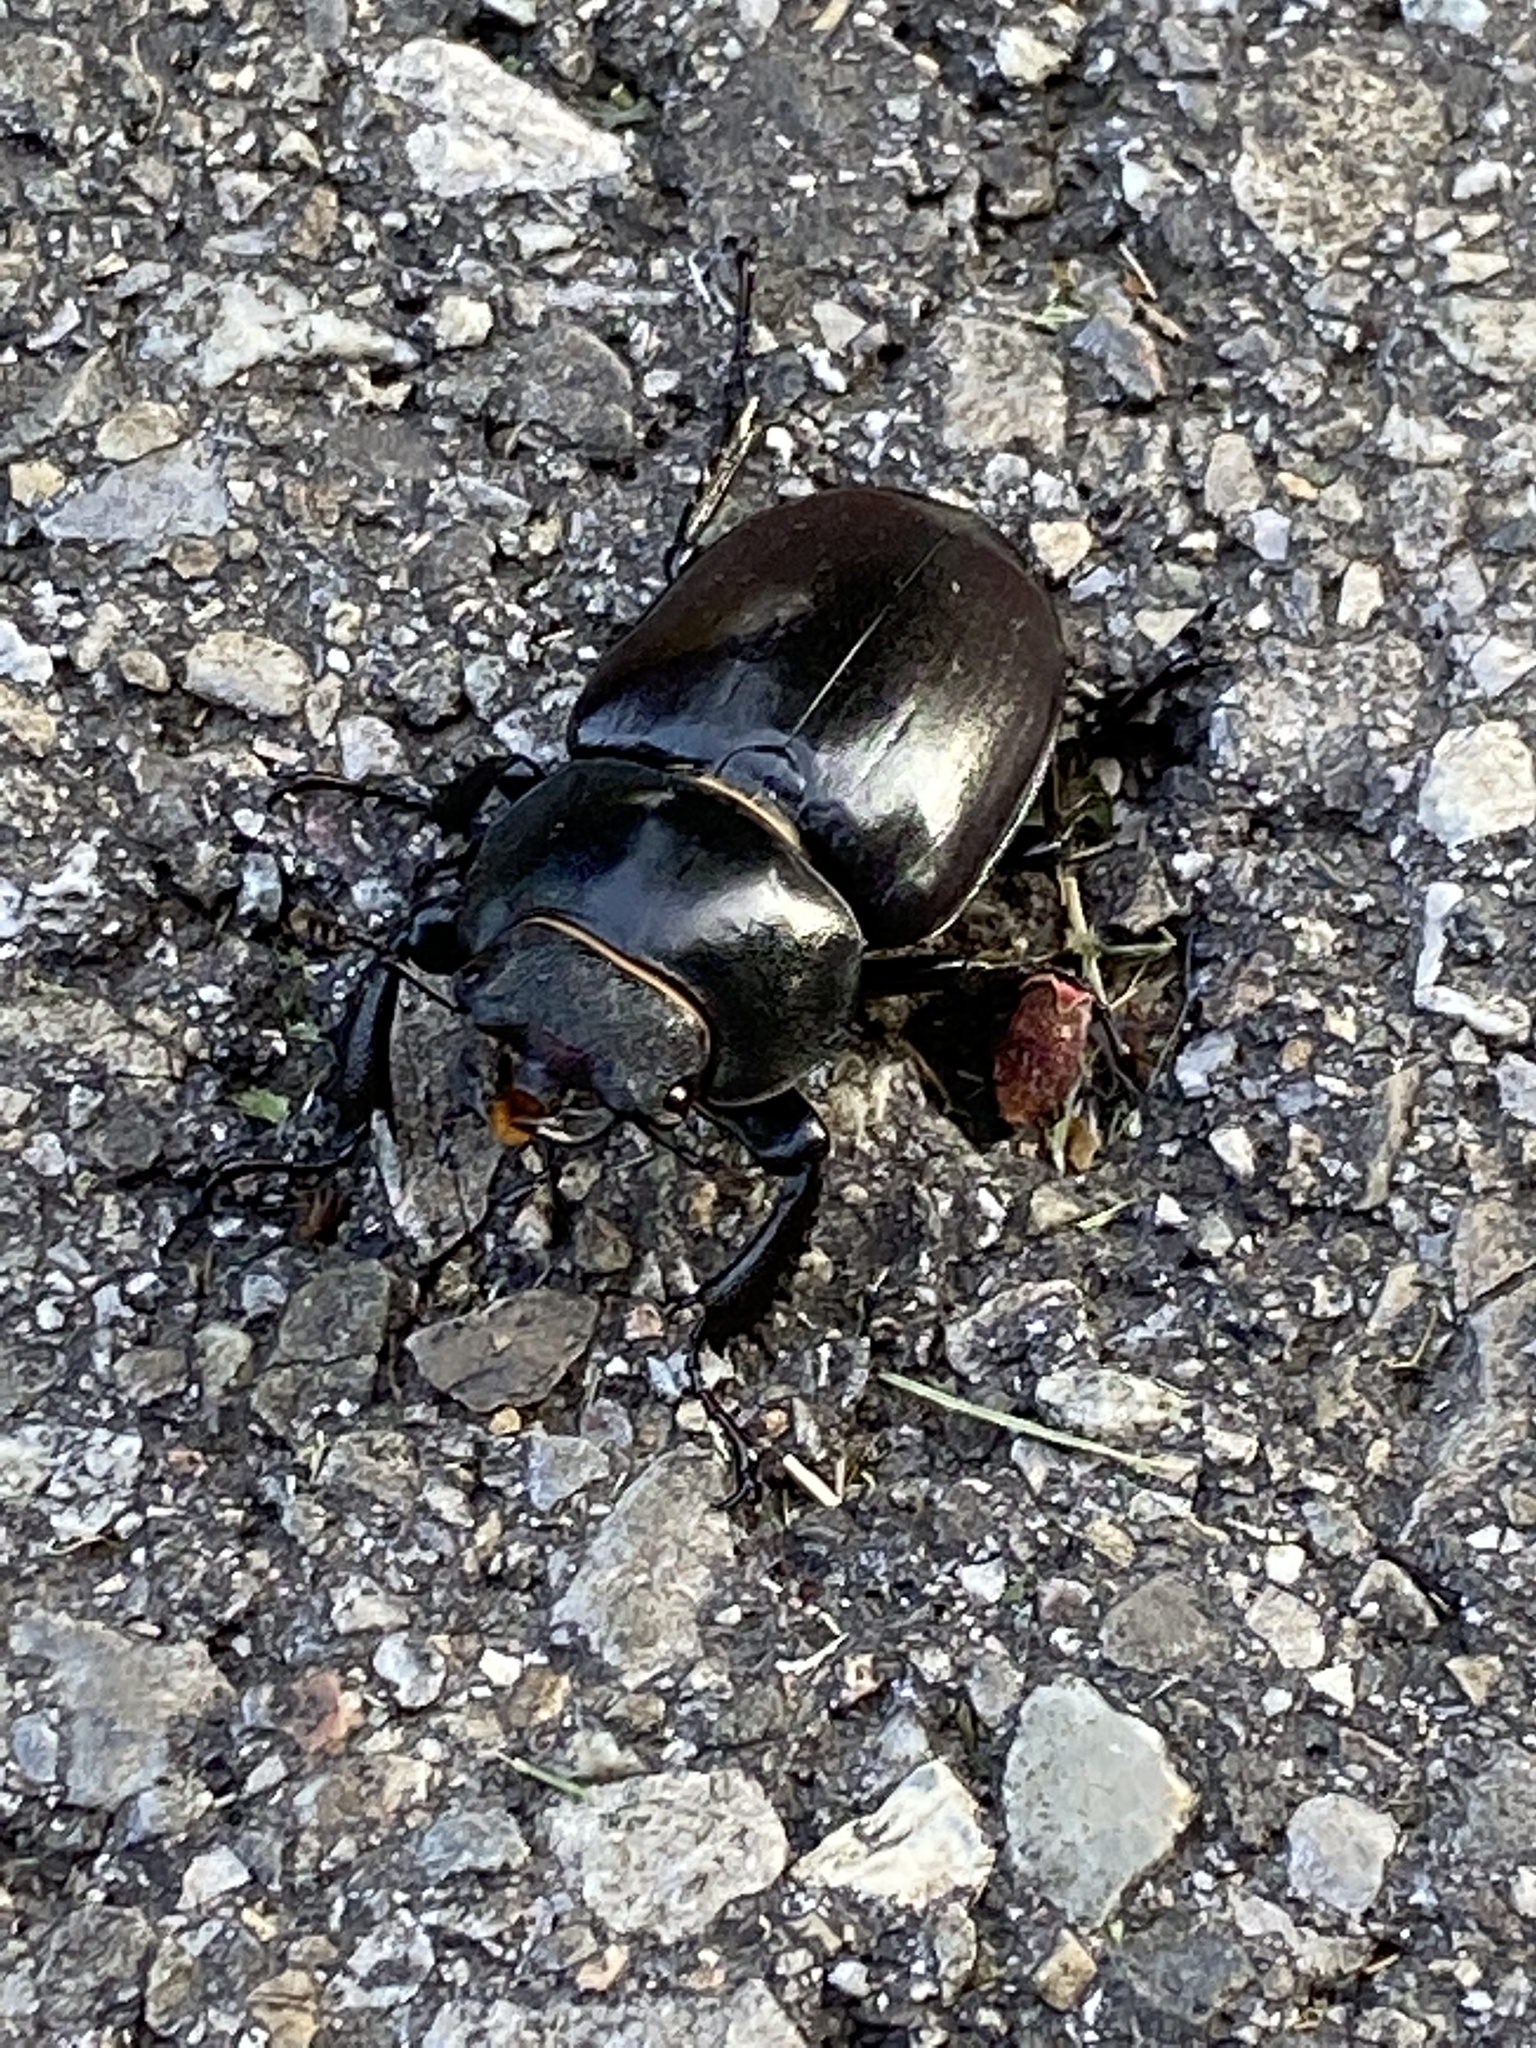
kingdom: Animalia
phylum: Arthropoda
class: Insecta
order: Coleoptera
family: Lucanidae
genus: Lucanus
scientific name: Lucanus cervus
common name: Stag beetle
